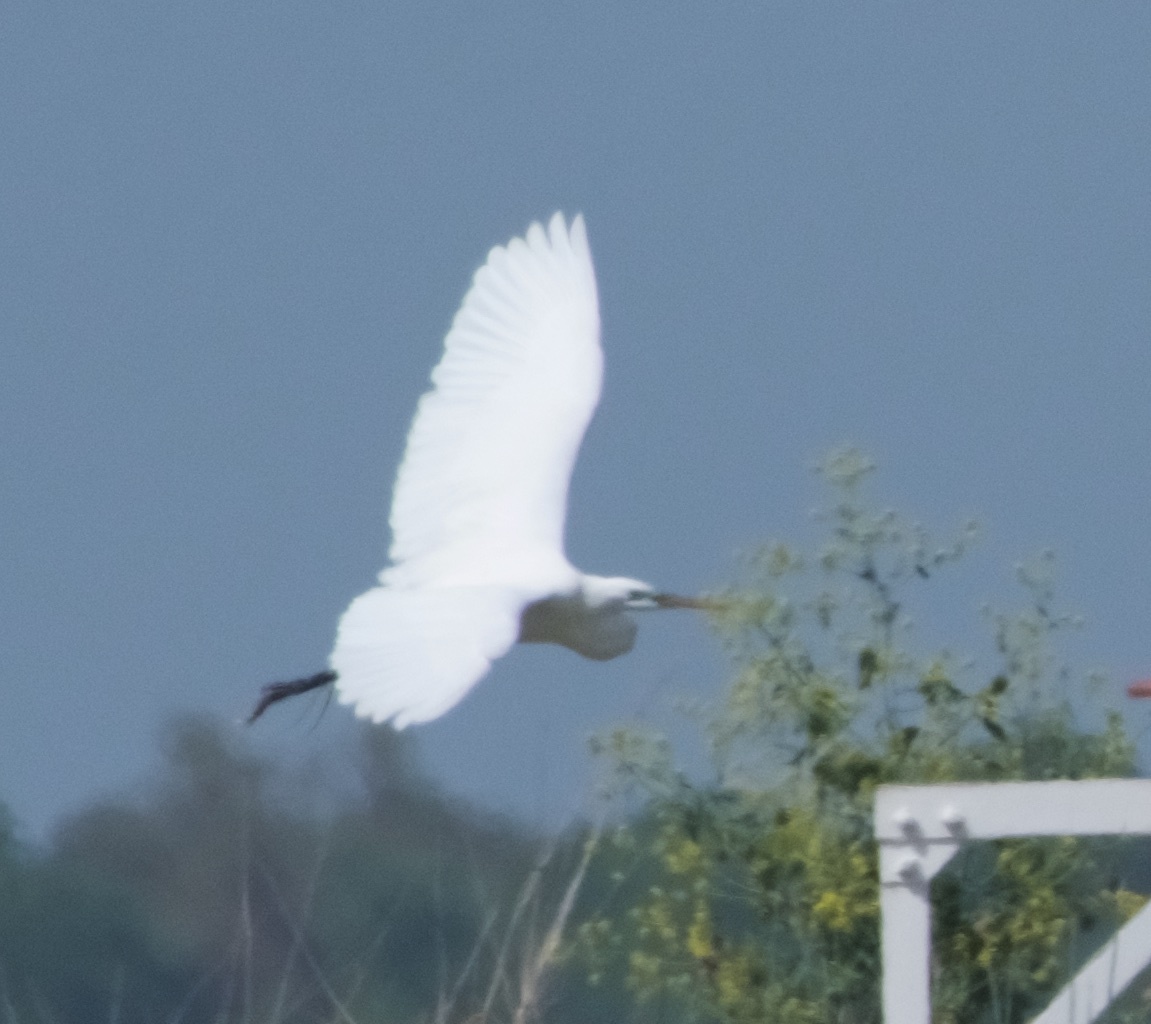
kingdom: Animalia
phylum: Chordata
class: Aves
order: Pelecaniformes
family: Ardeidae
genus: Ardea
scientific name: Ardea alba
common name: Great egret
